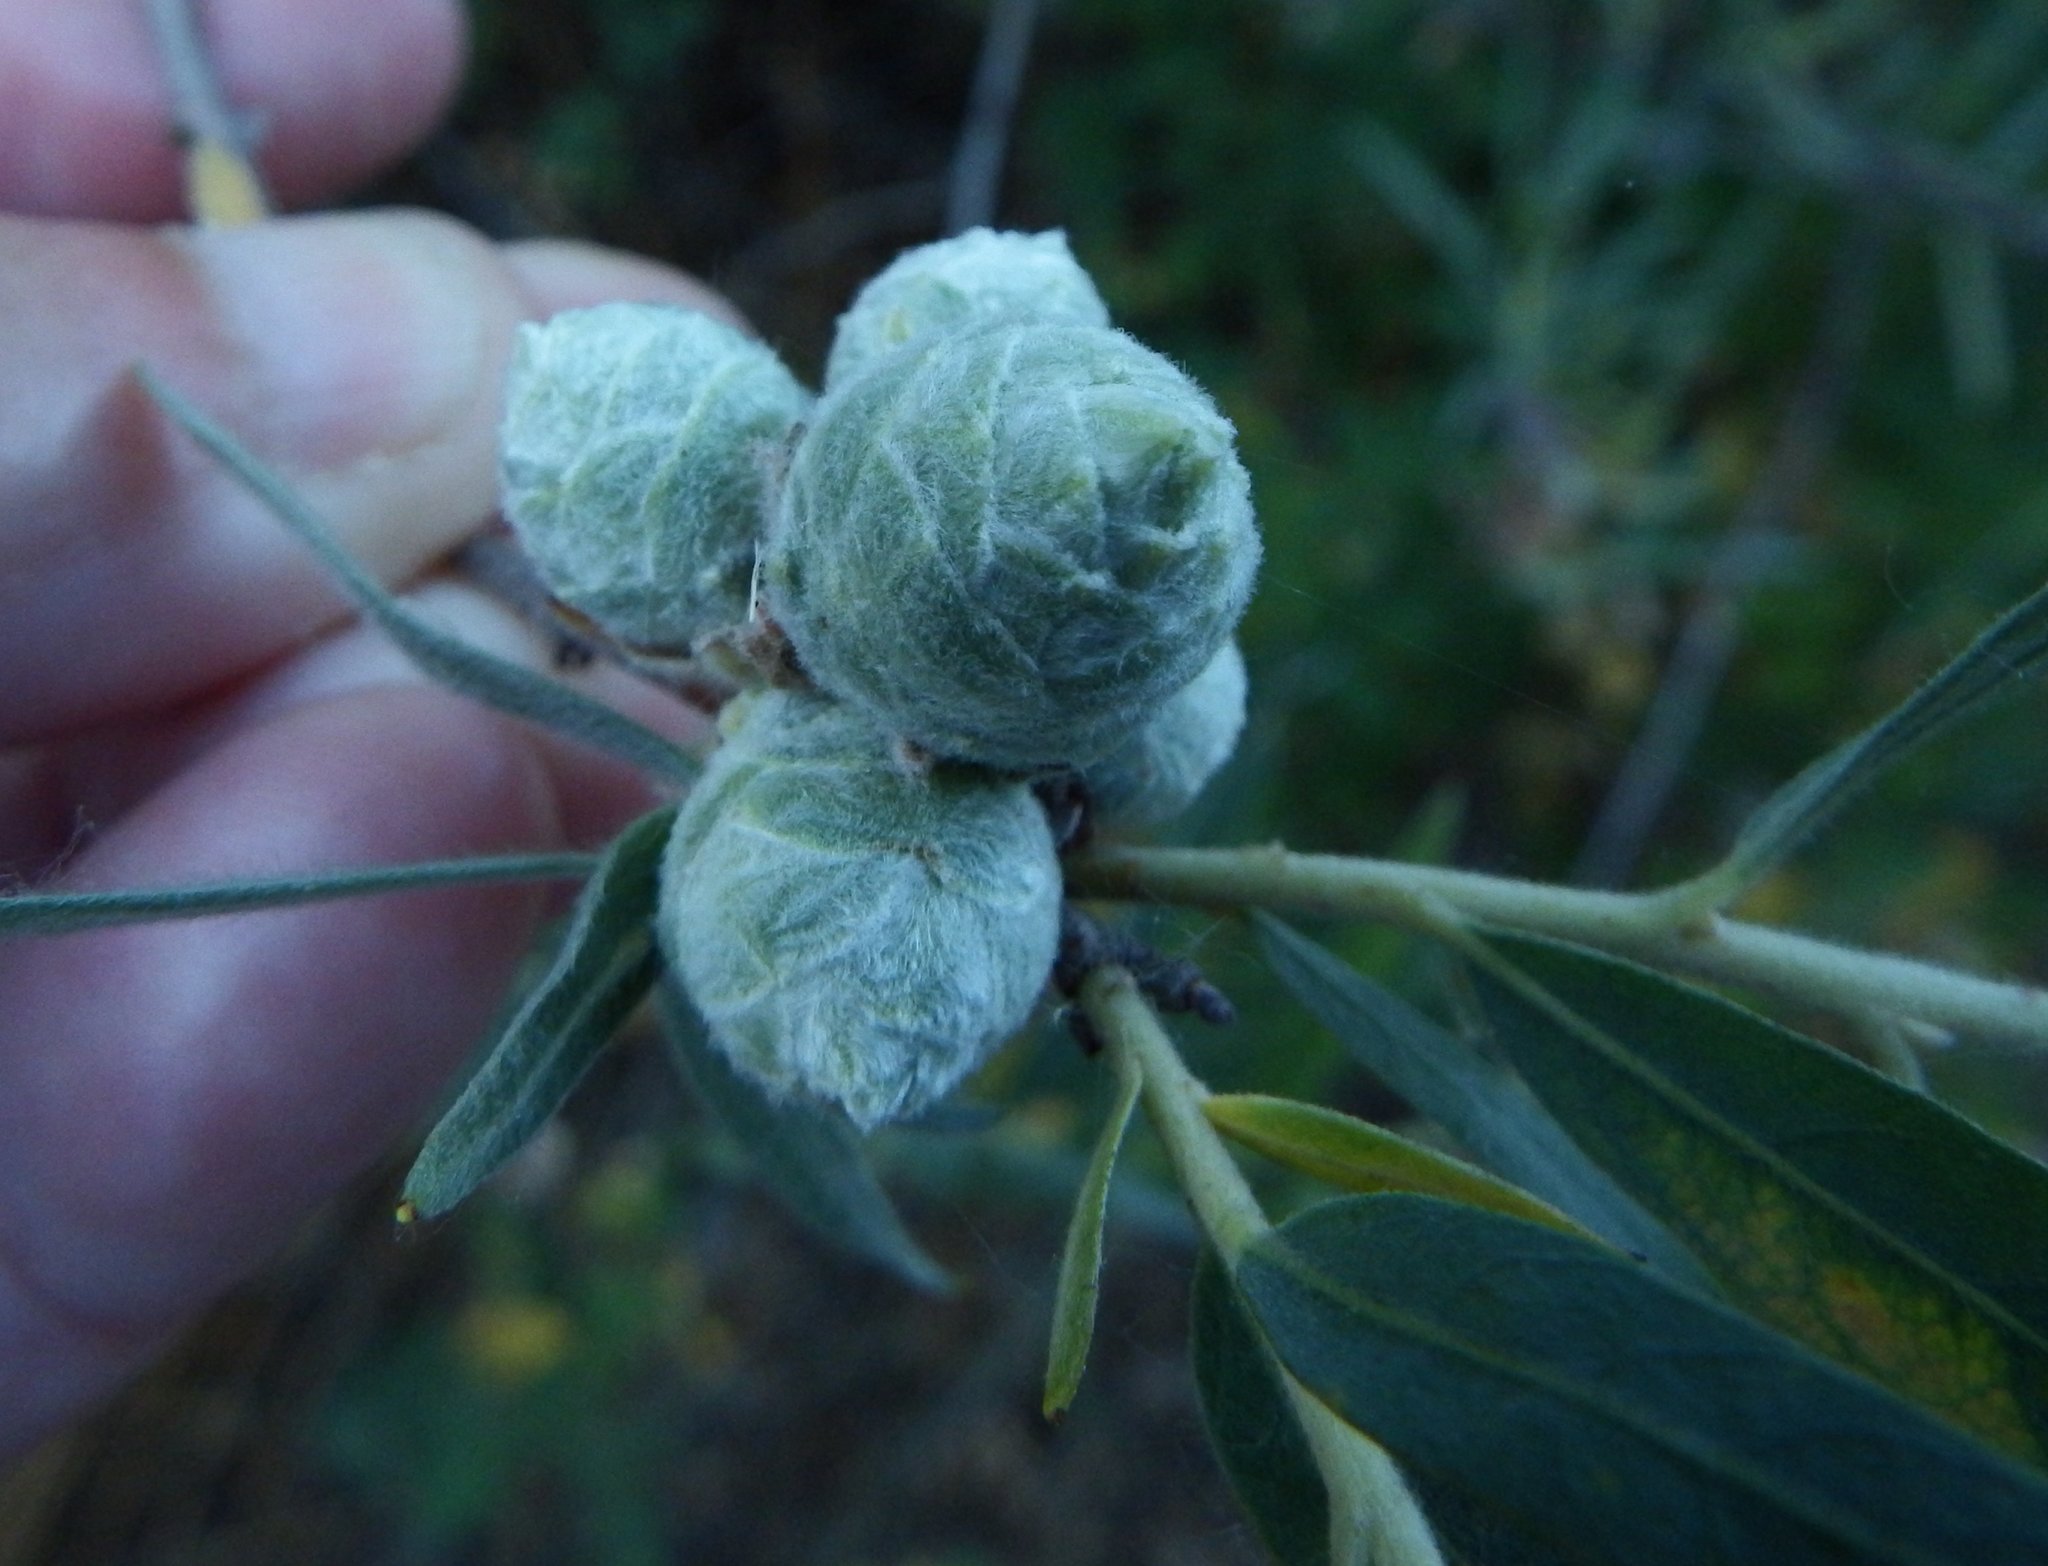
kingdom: Animalia
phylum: Arthropoda
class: Insecta
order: Diptera
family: Cecidomyiidae
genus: Rabdophaga
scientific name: Rabdophaga strobiloides
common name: Willow pinecone gall midge
